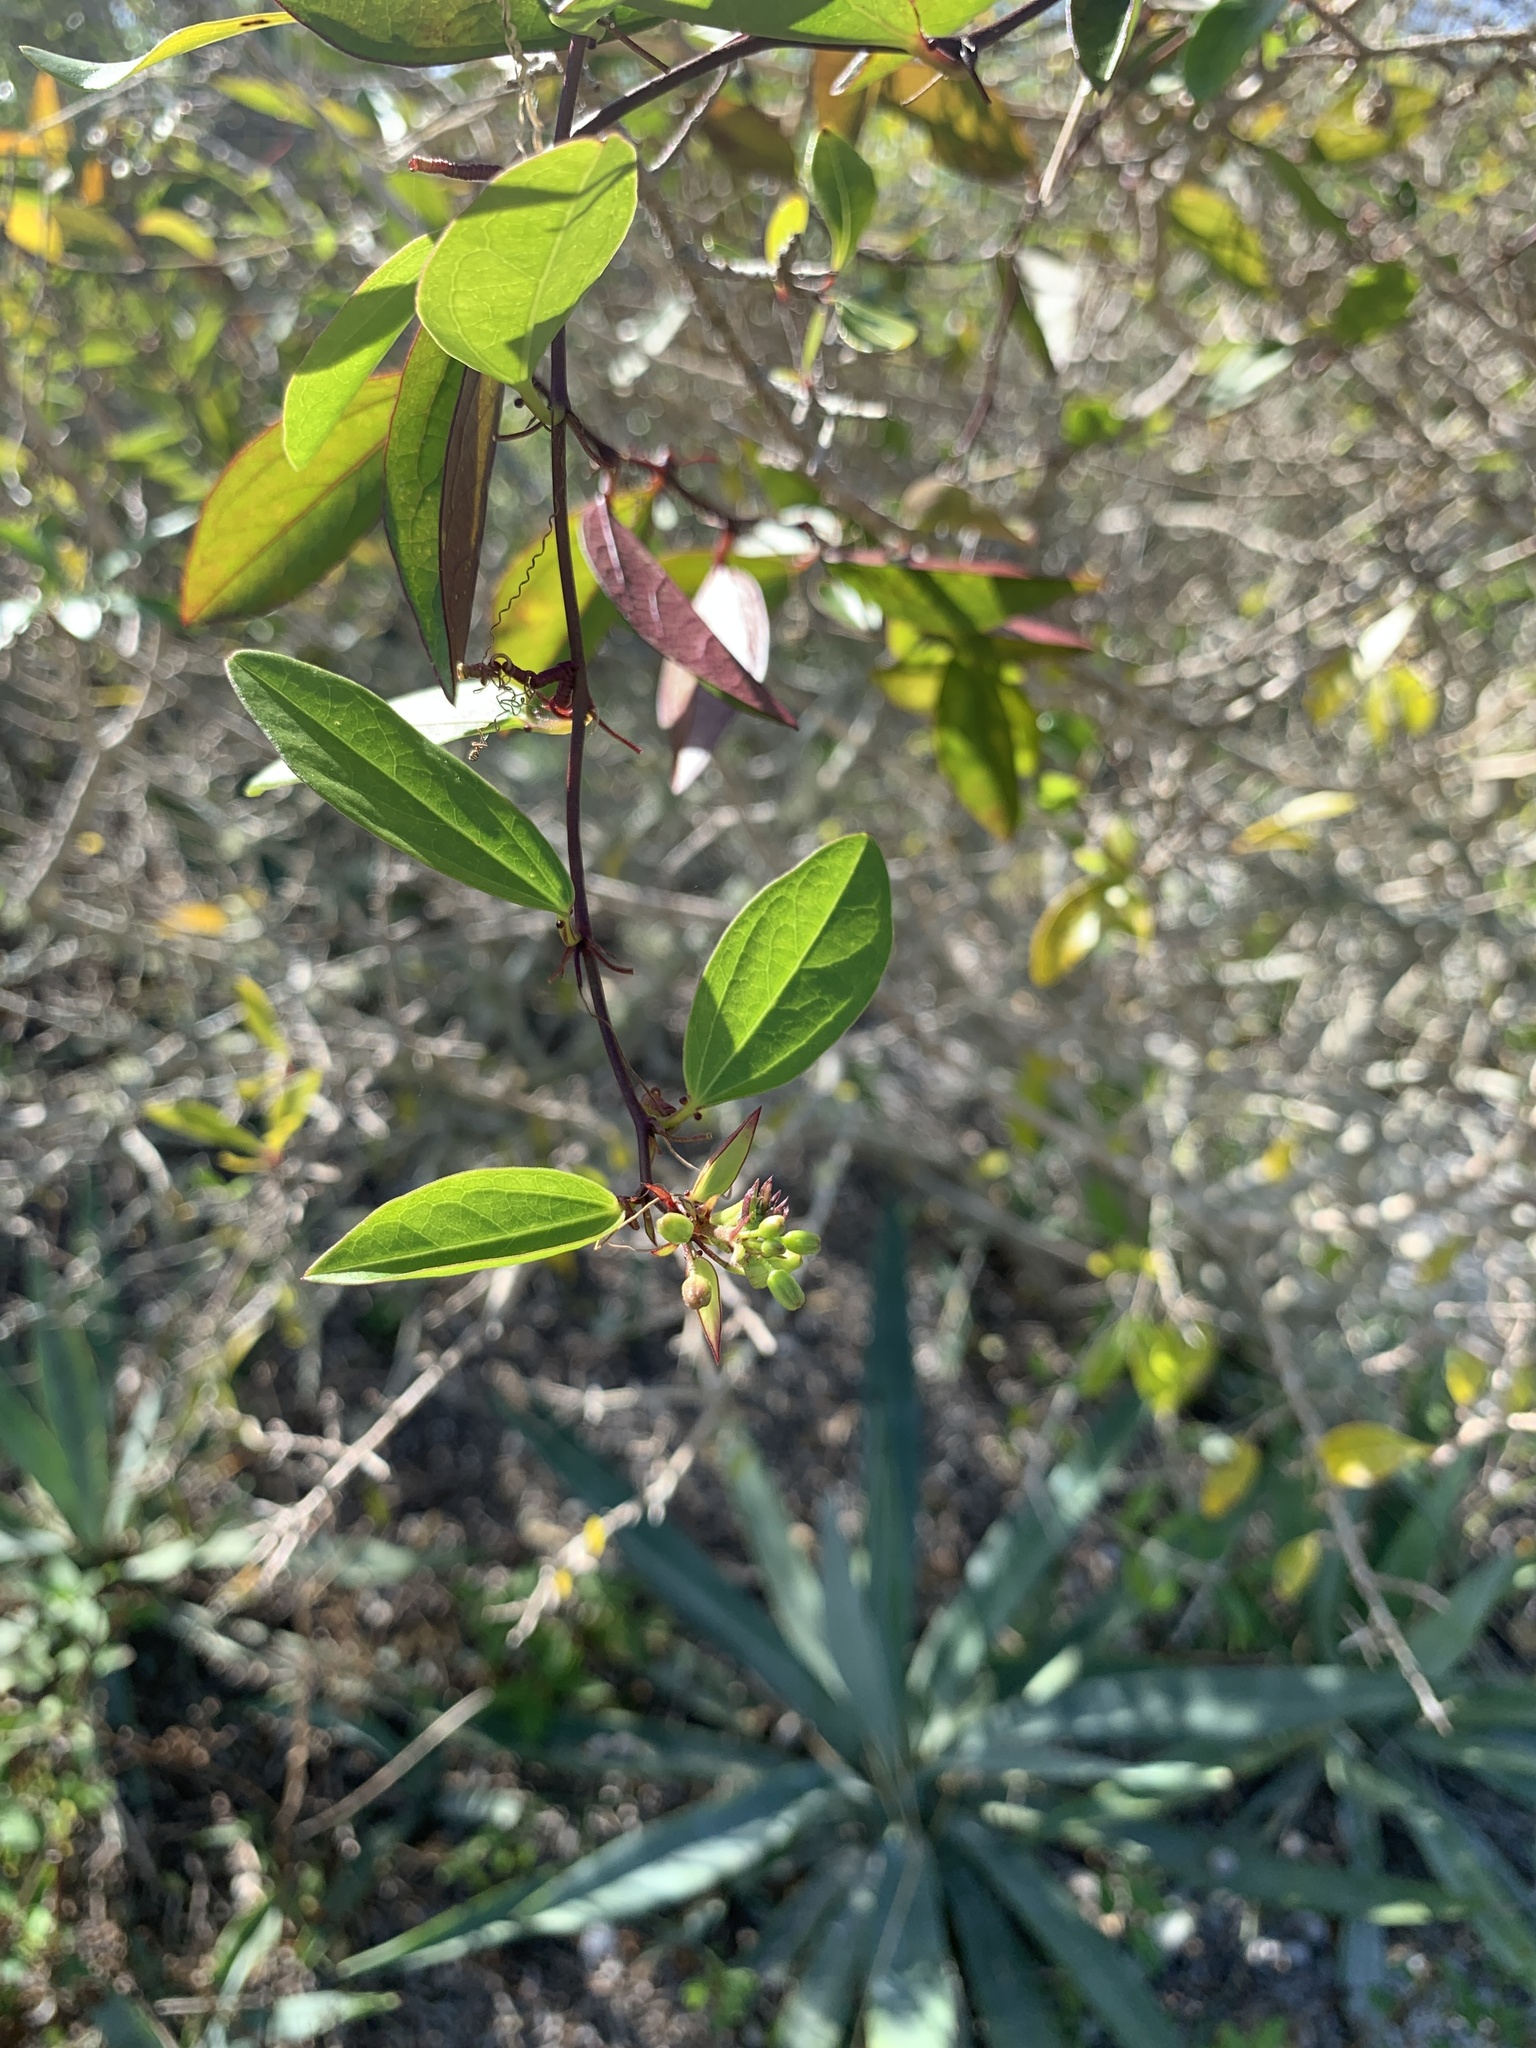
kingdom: Plantae
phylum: Tracheophyta
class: Magnoliopsida
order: Malpighiales
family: Passifloraceae
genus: Passiflora
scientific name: Passiflora pallida
